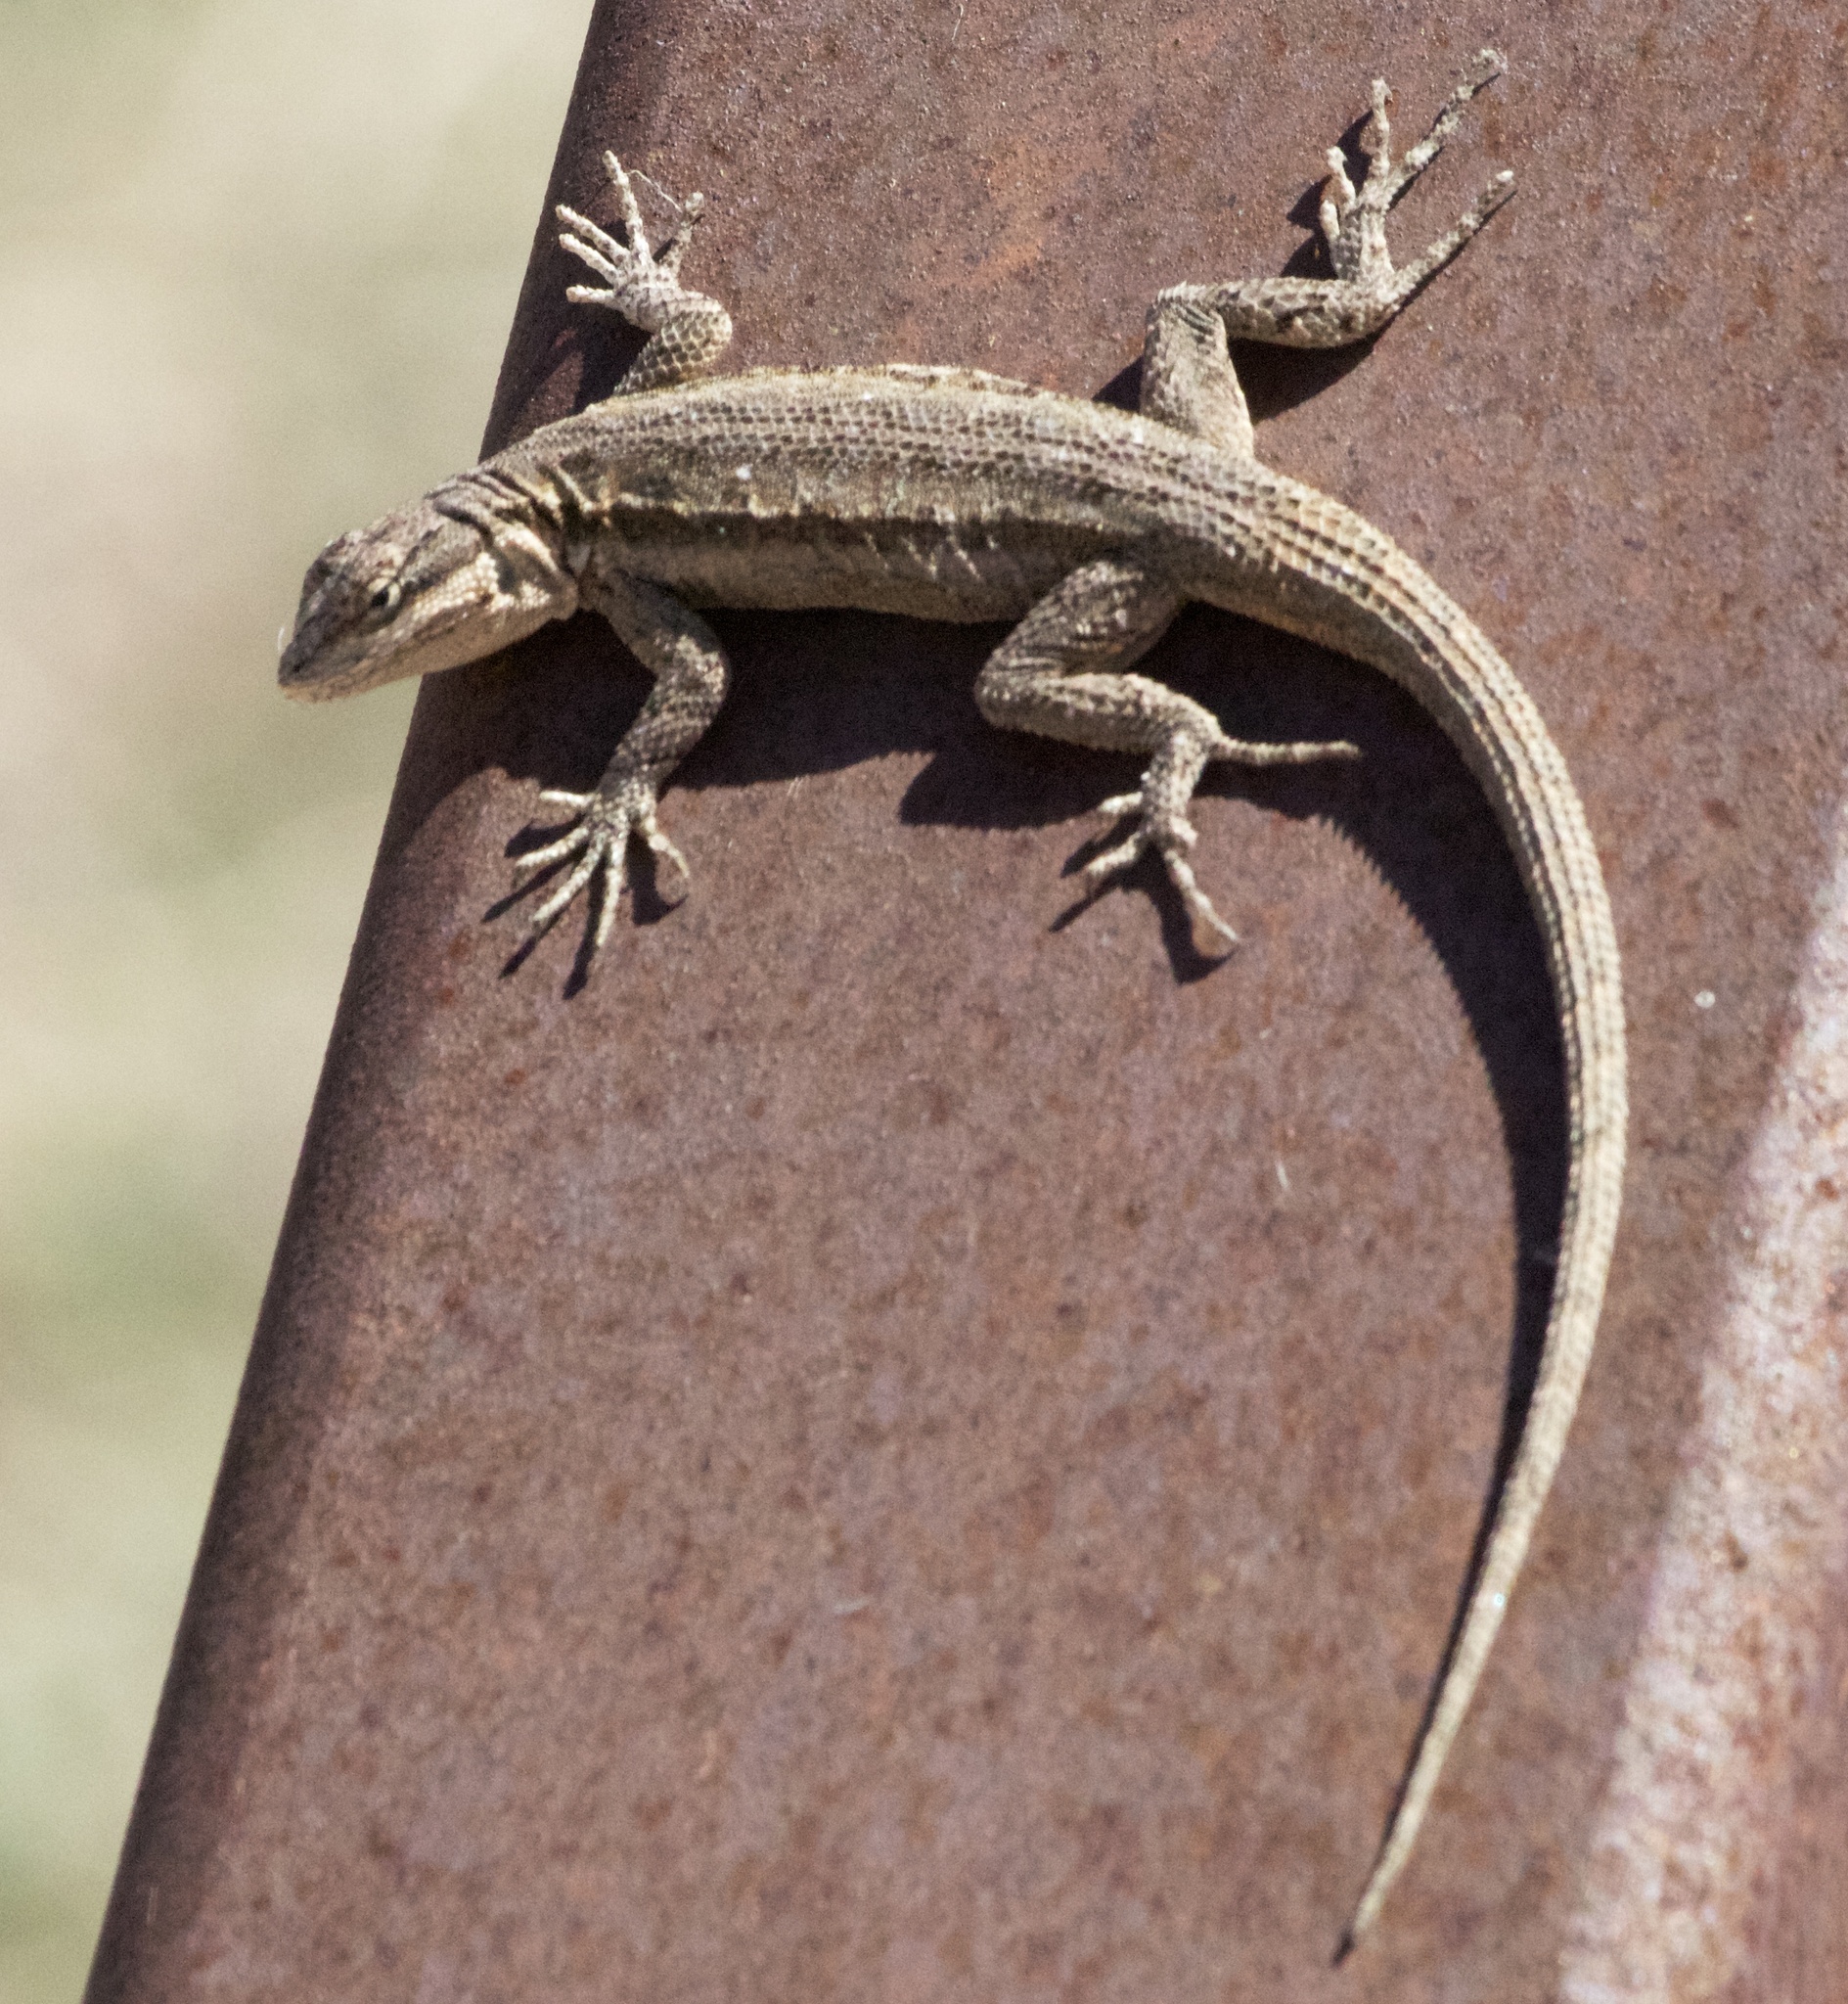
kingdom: Animalia
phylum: Chordata
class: Squamata
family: Phrynosomatidae
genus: Urosaurus
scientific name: Urosaurus ornatus
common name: Ornate tree lizard
